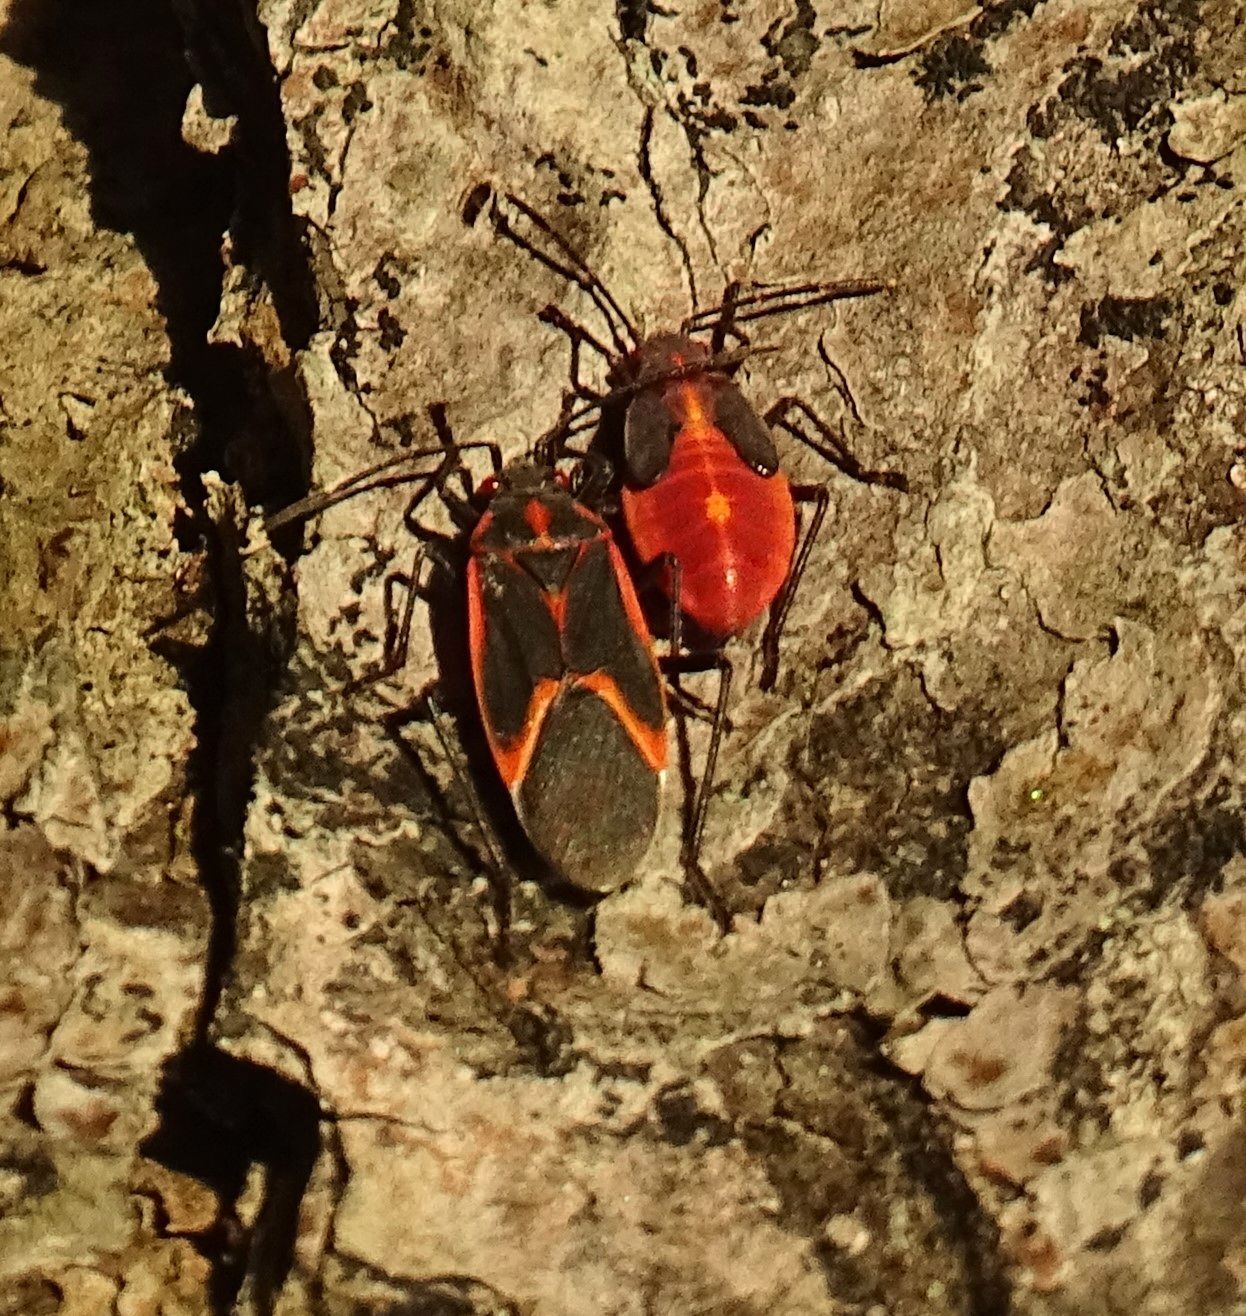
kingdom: Animalia
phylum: Arthropoda
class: Insecta
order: Hemiptera
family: Rhopalidae
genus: Boisea
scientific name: Boisea trivittata
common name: Boxelder bug
